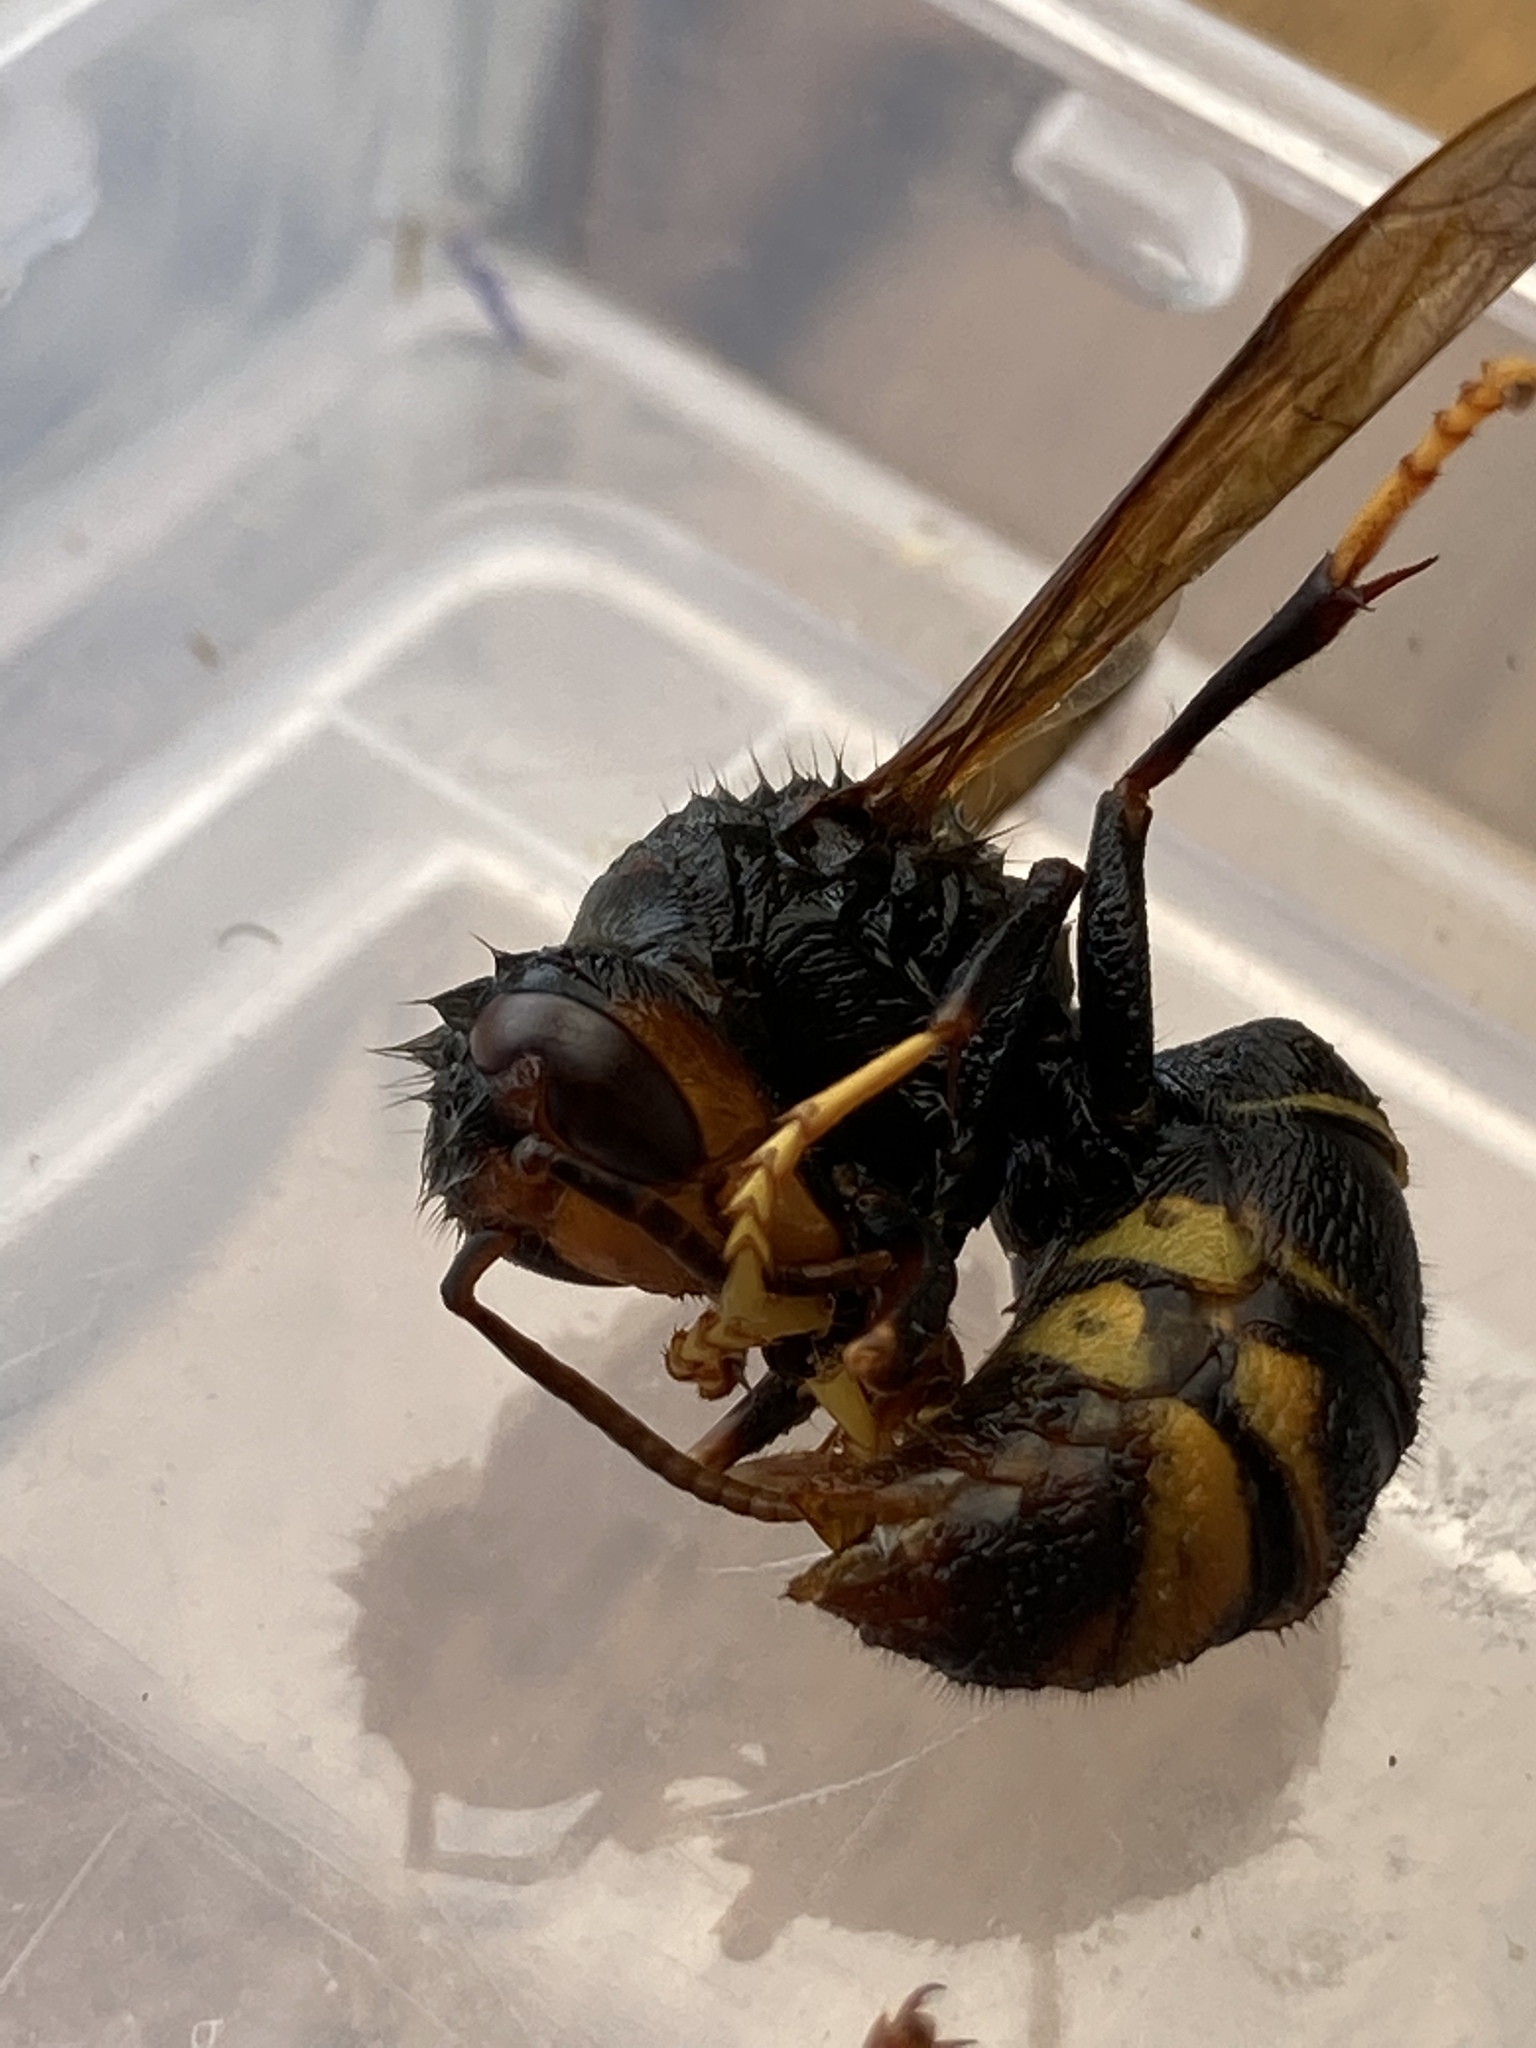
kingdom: Animalia
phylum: Arthropoda
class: Insecta
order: Hymenoptera
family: Vespidae
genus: Vespa
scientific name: Vespa velutina
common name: Asian hornet
